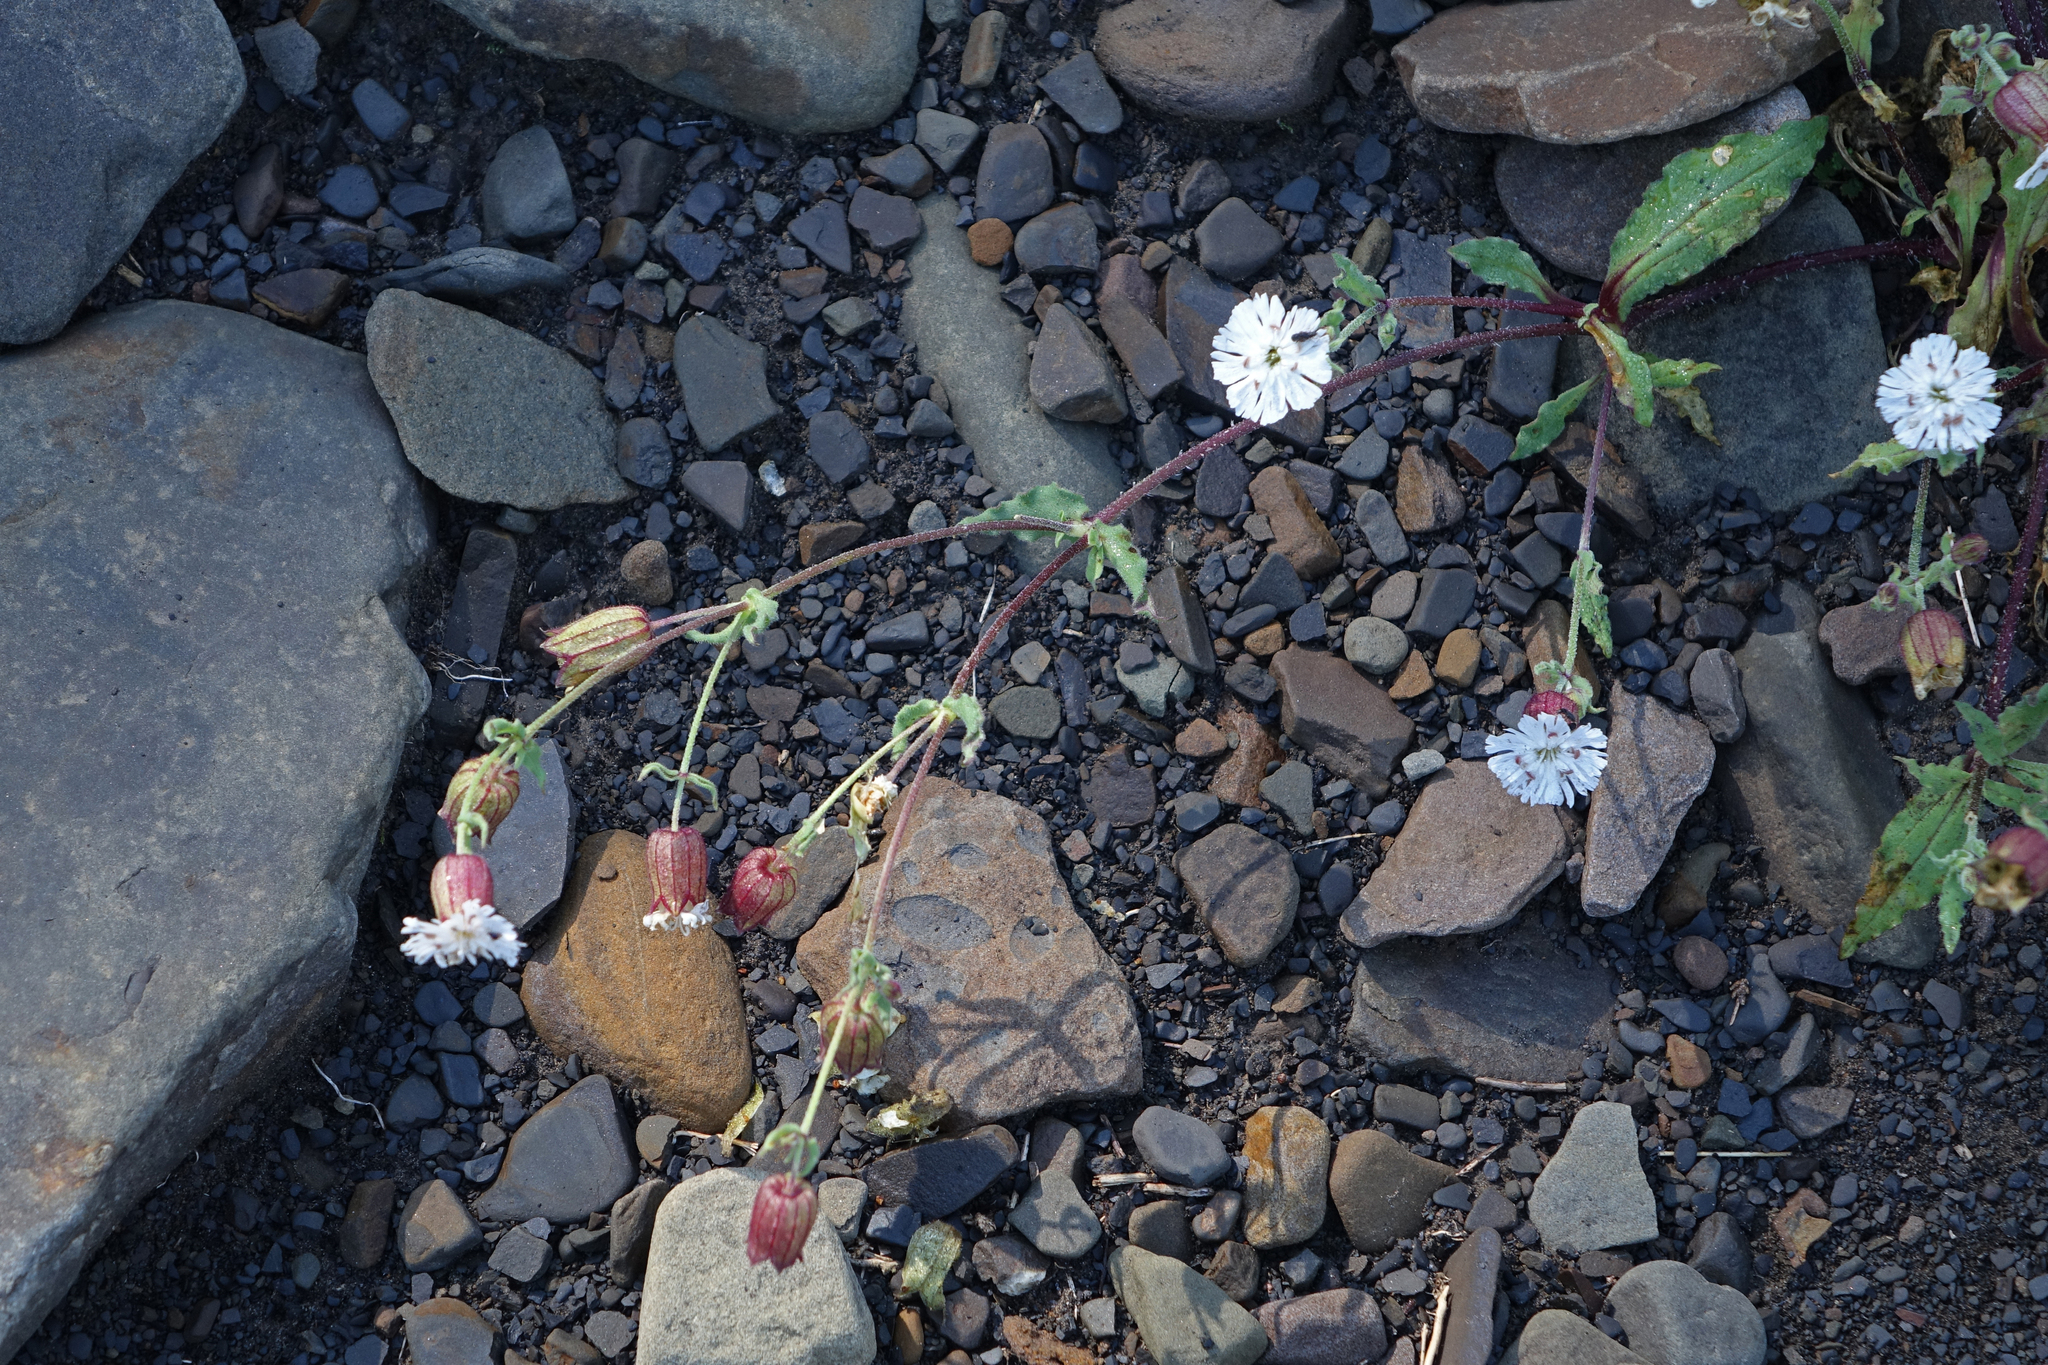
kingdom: Plantae
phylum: Tracheophyta
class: Magnoliopsida
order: Caryophyllales
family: Caryophyllaceae
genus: Silene
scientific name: Silene lacera
